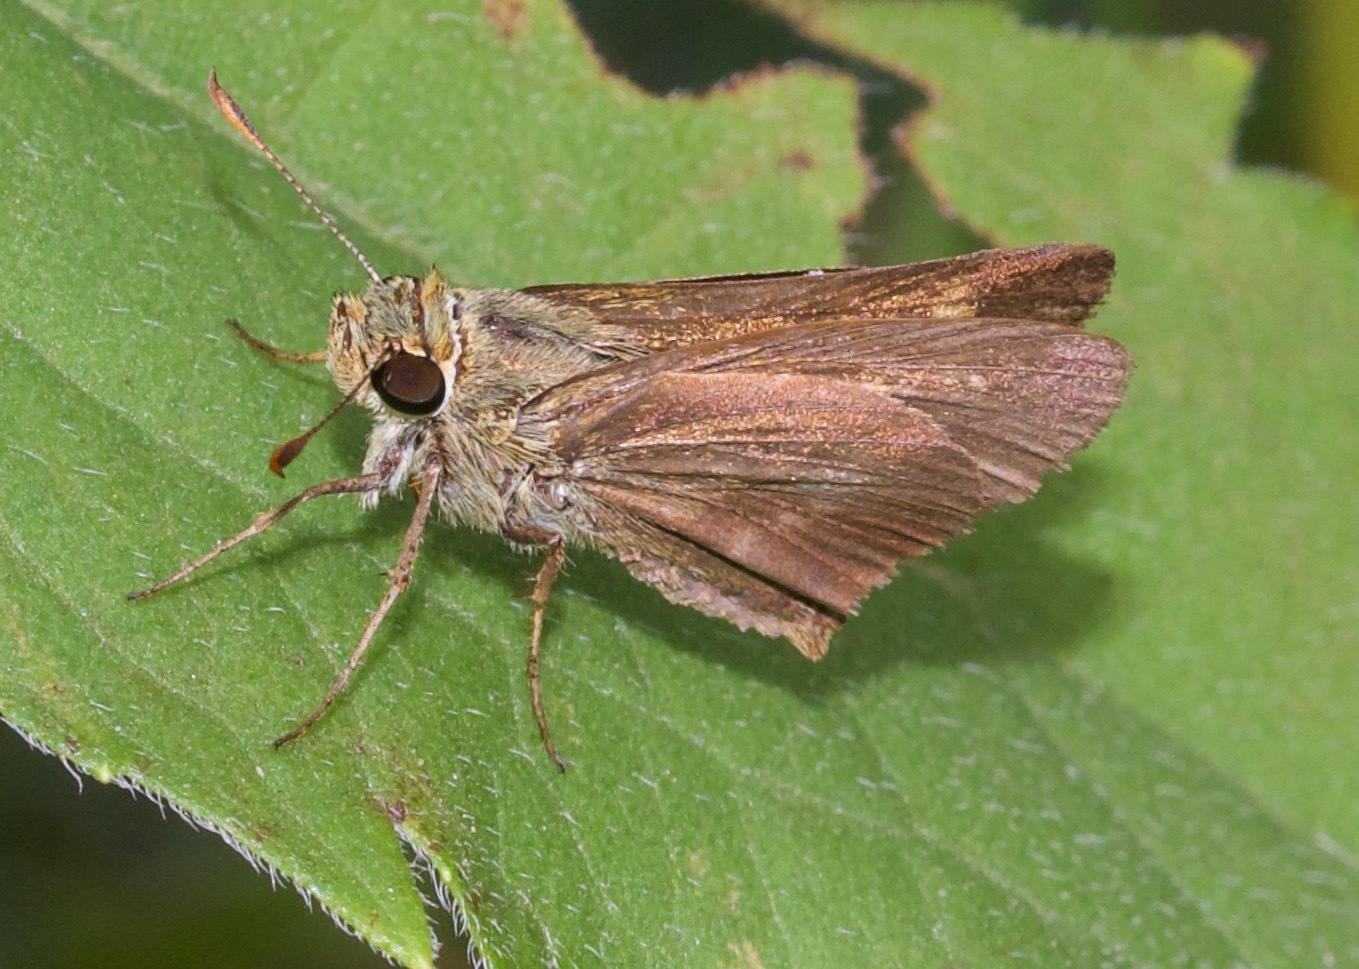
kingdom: Animalia
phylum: Arthropoda
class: Insecta
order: Lepidoptera
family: Hesperiidae
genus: Polites
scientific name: Polites egeremet
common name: Northern broken-dash
